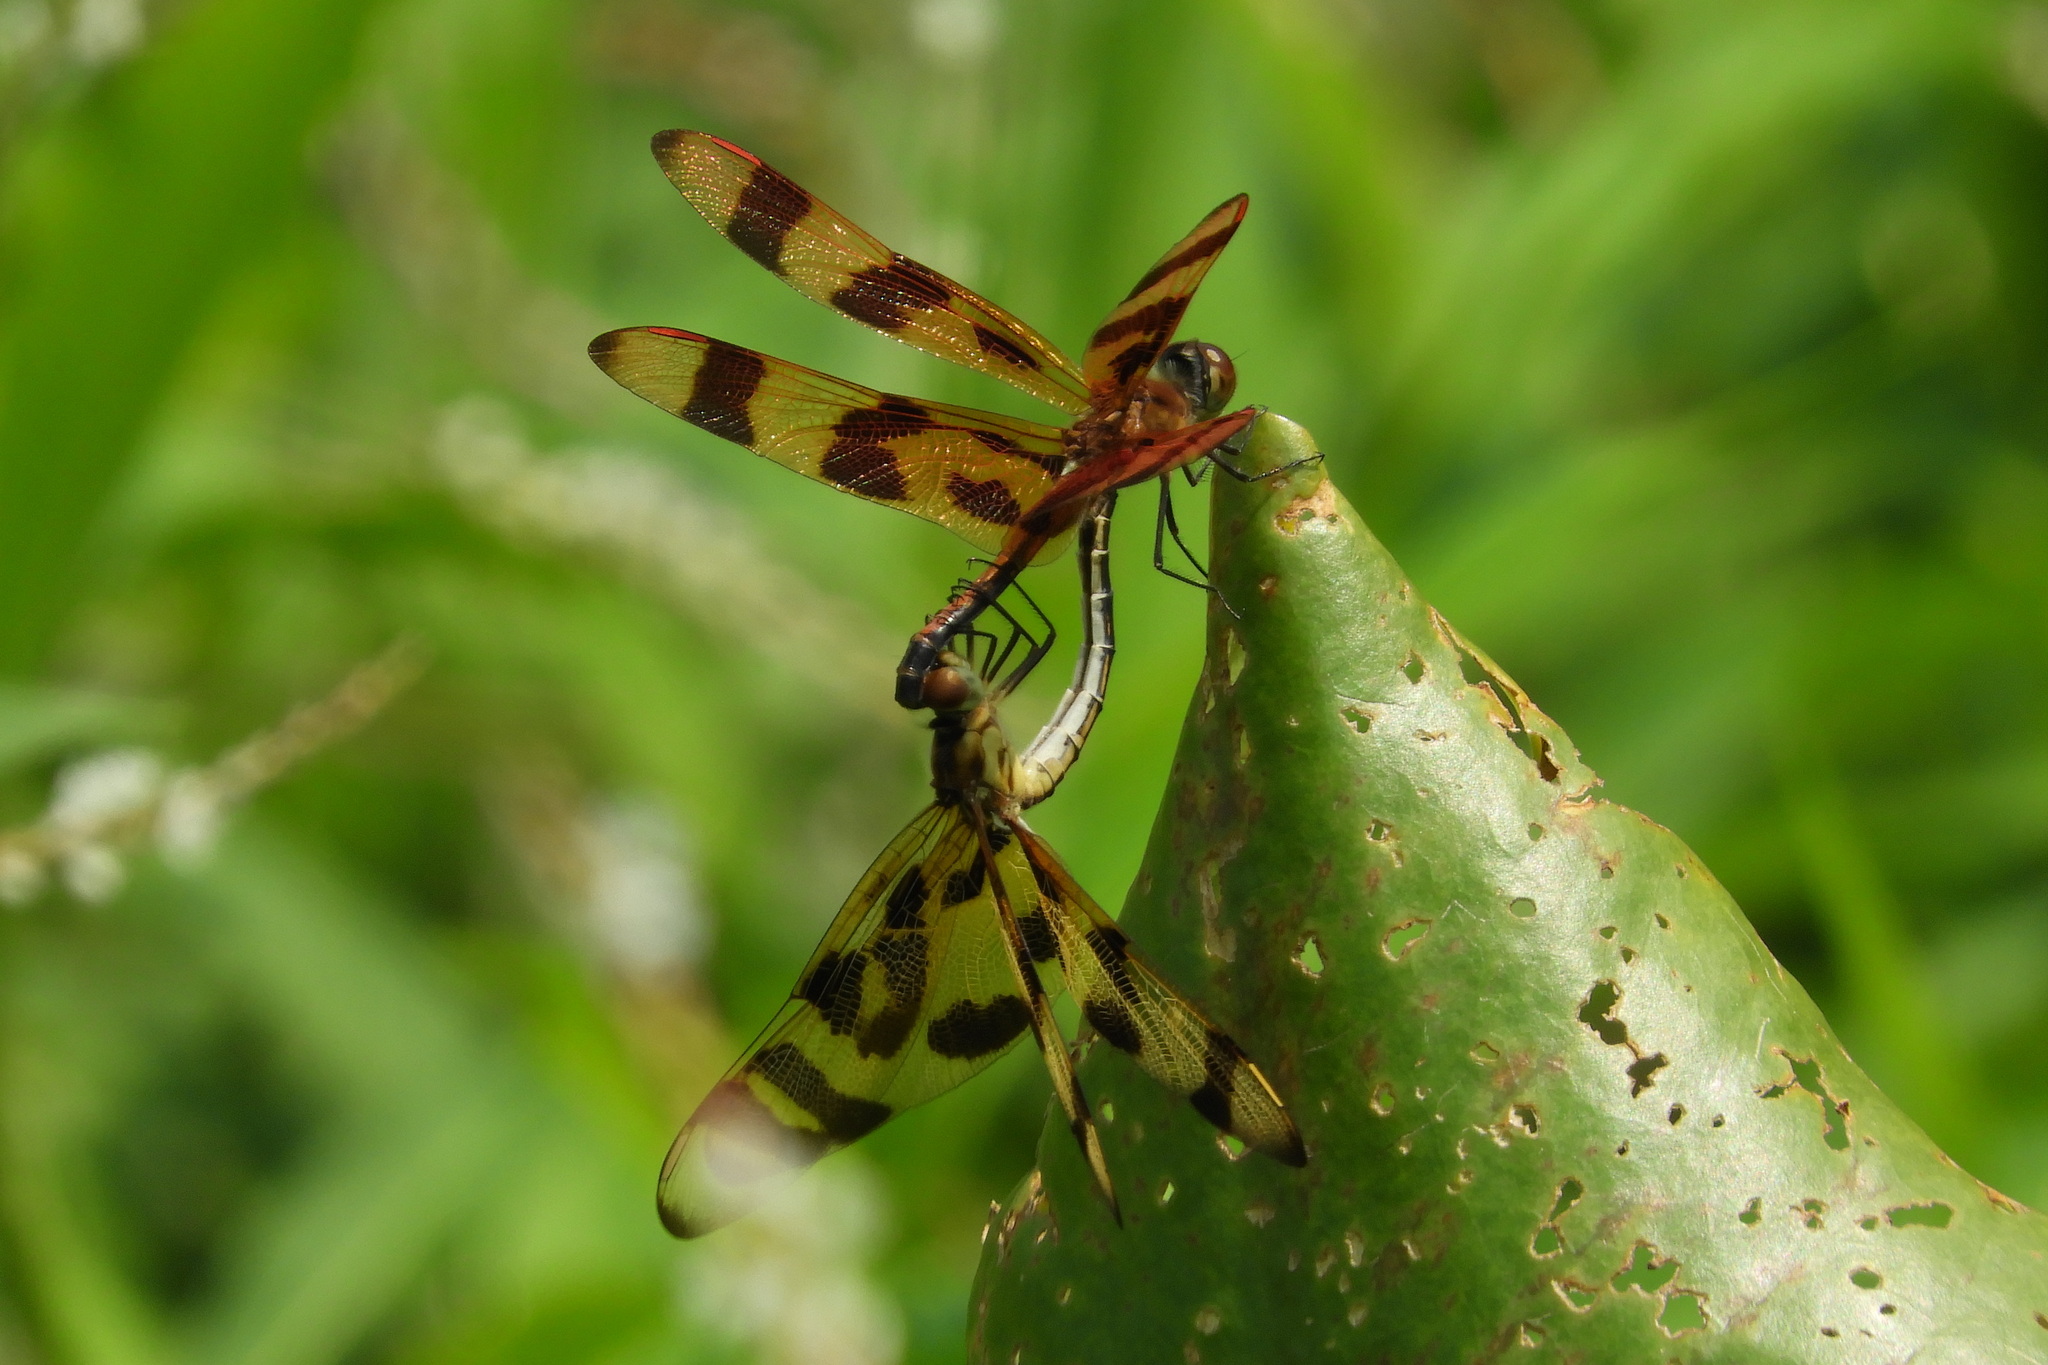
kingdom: Animalia
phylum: Arthropoda
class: Insecta
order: Odonata
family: Libellulidae
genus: Celithemis
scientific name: Celithemis eponina
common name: Halloween pennant
